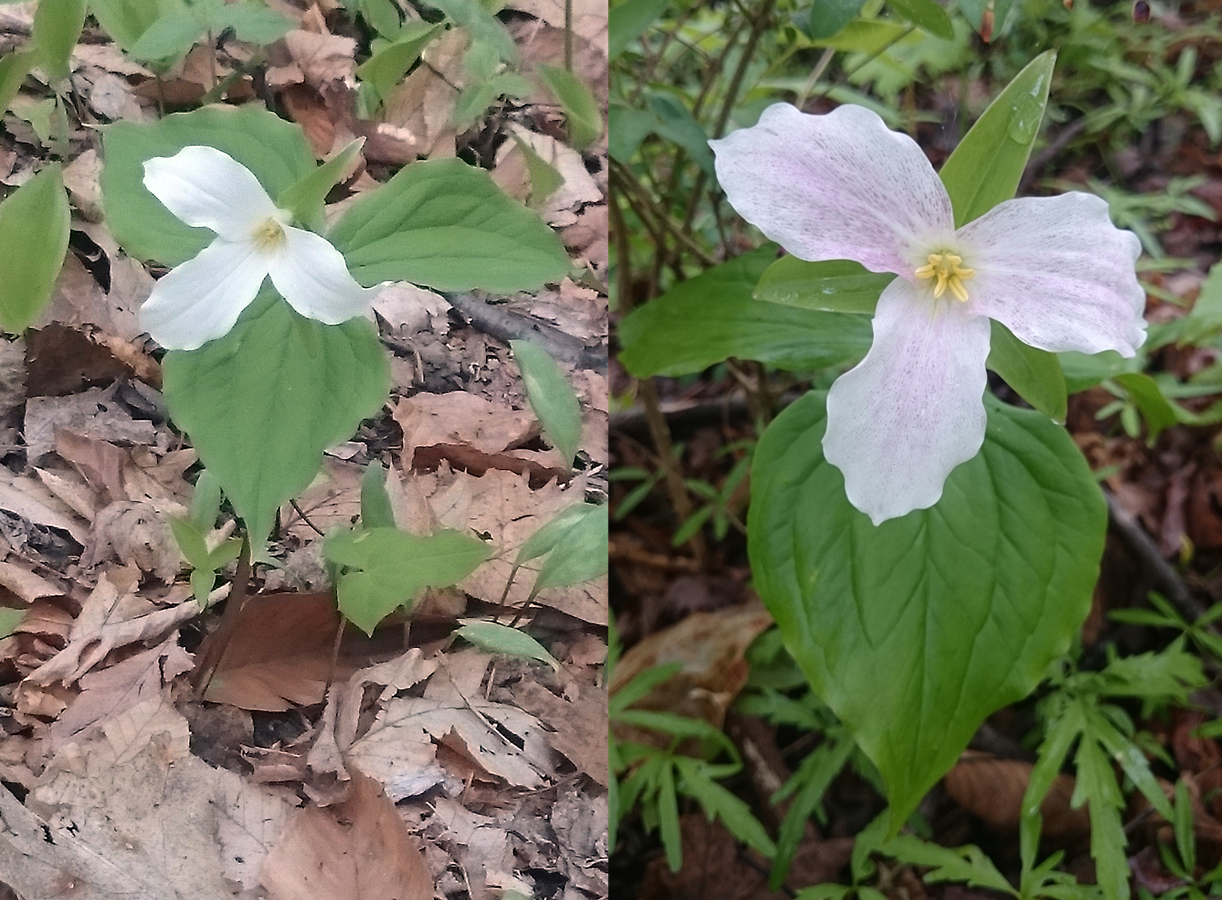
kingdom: Plantae
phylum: Tracheophyta
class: Liliopsida
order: Liliales
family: Melanthiaceae
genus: Trillium
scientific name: Trillium grandiflorum
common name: Great white trillium
